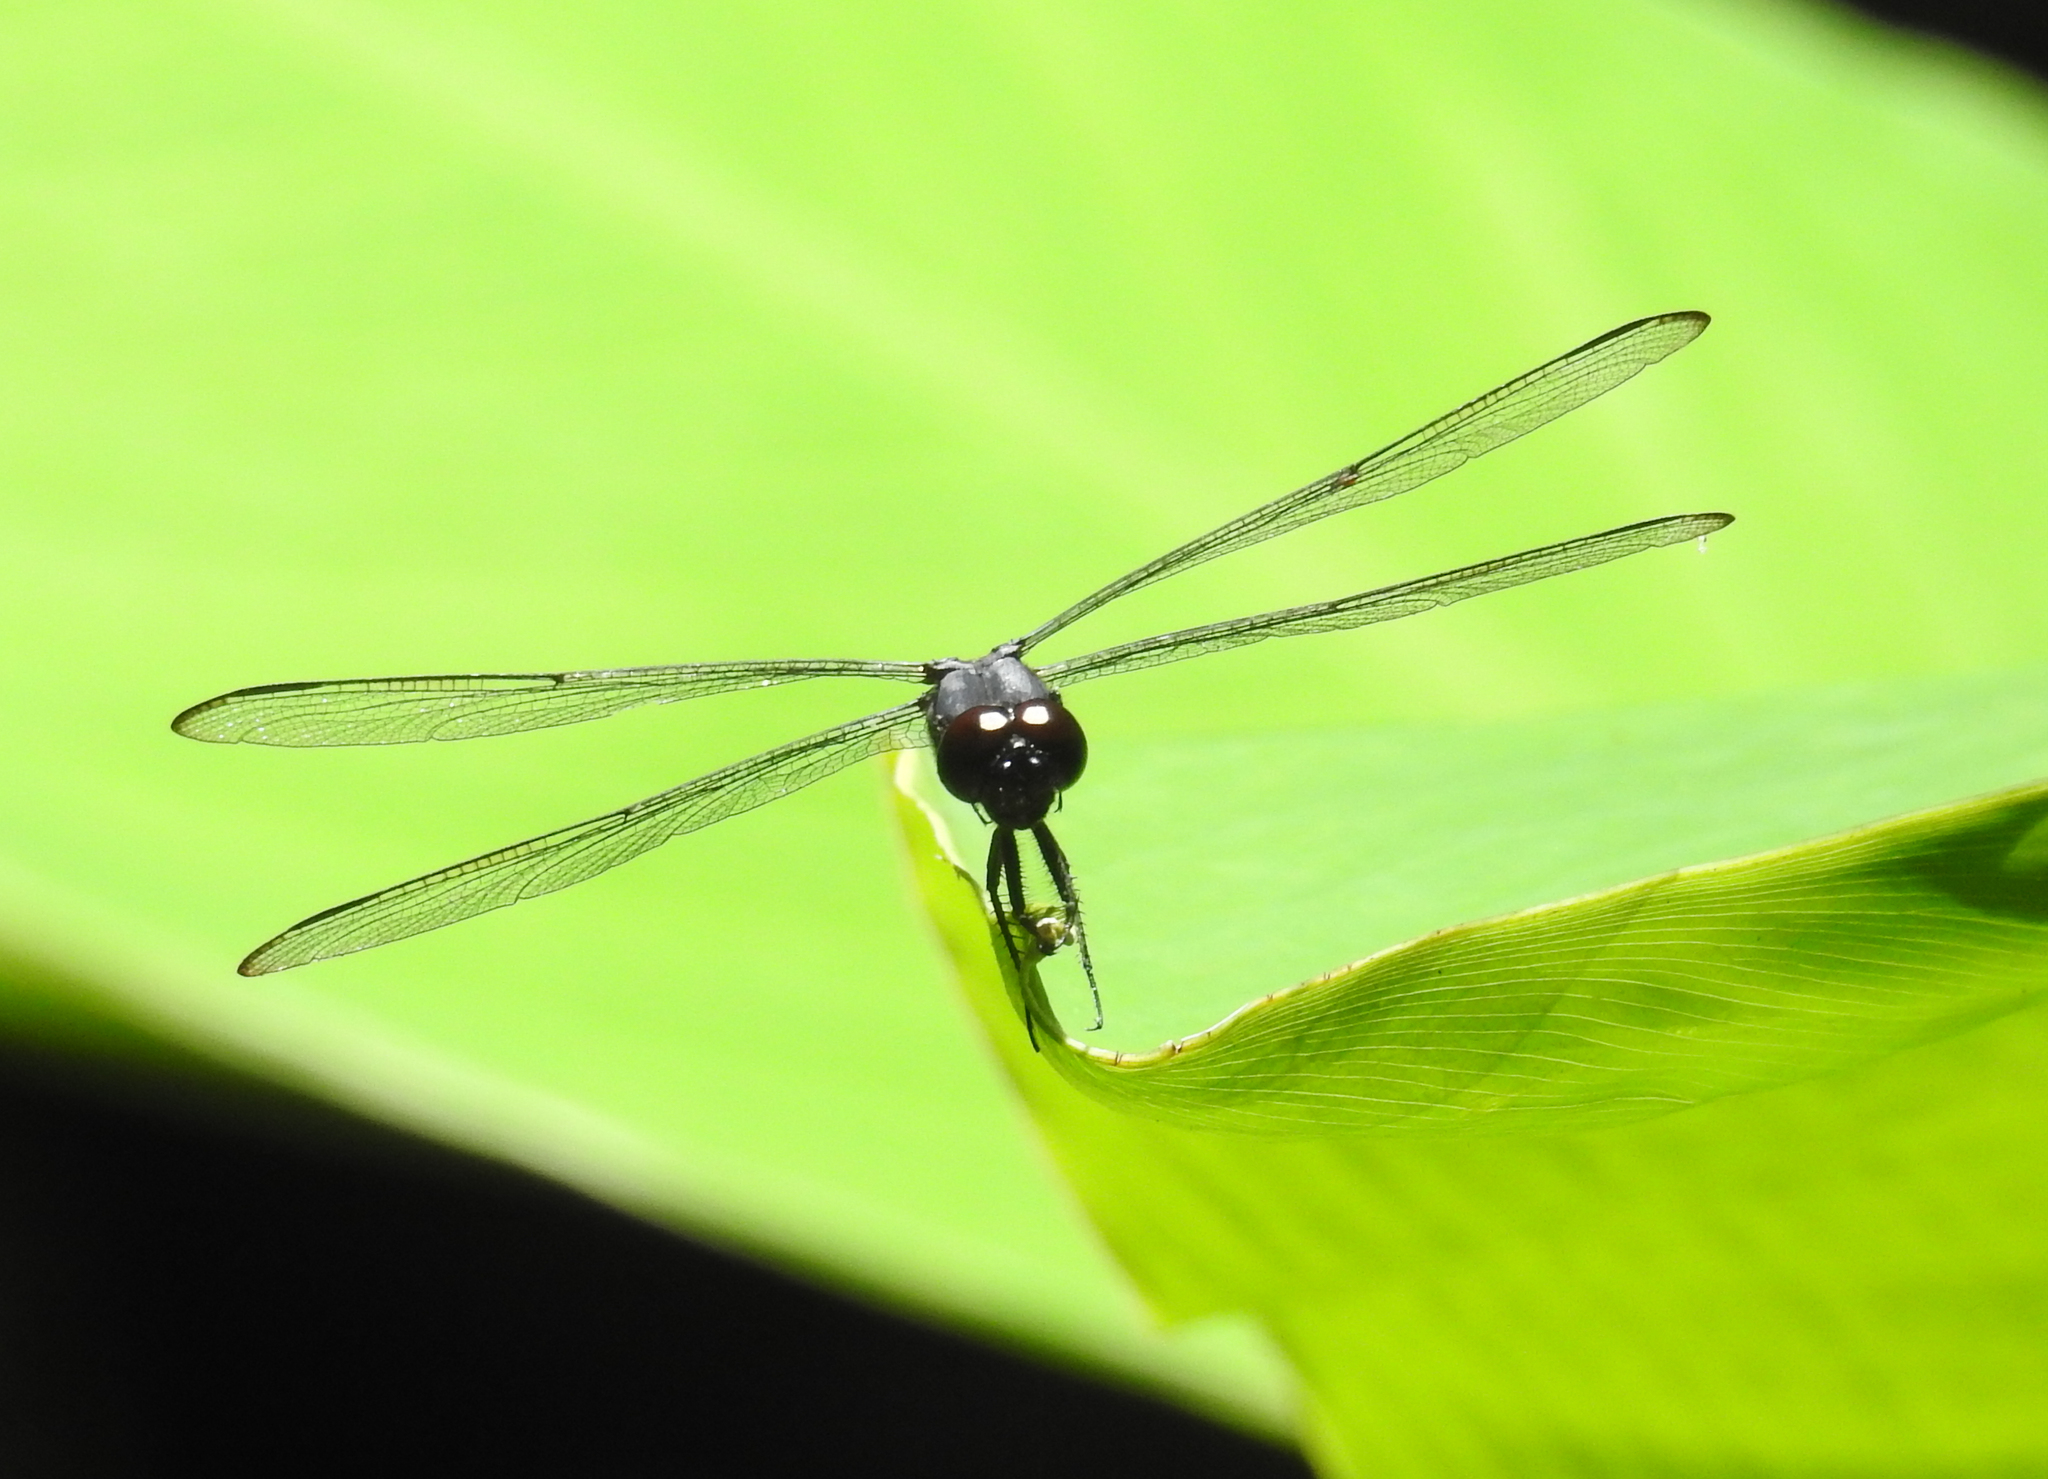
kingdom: Animalia
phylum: Arthropoda
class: Insecta
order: Odonata
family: Libellulidae
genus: Libellula
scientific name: Libellula incesta
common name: Slaty skimmer
